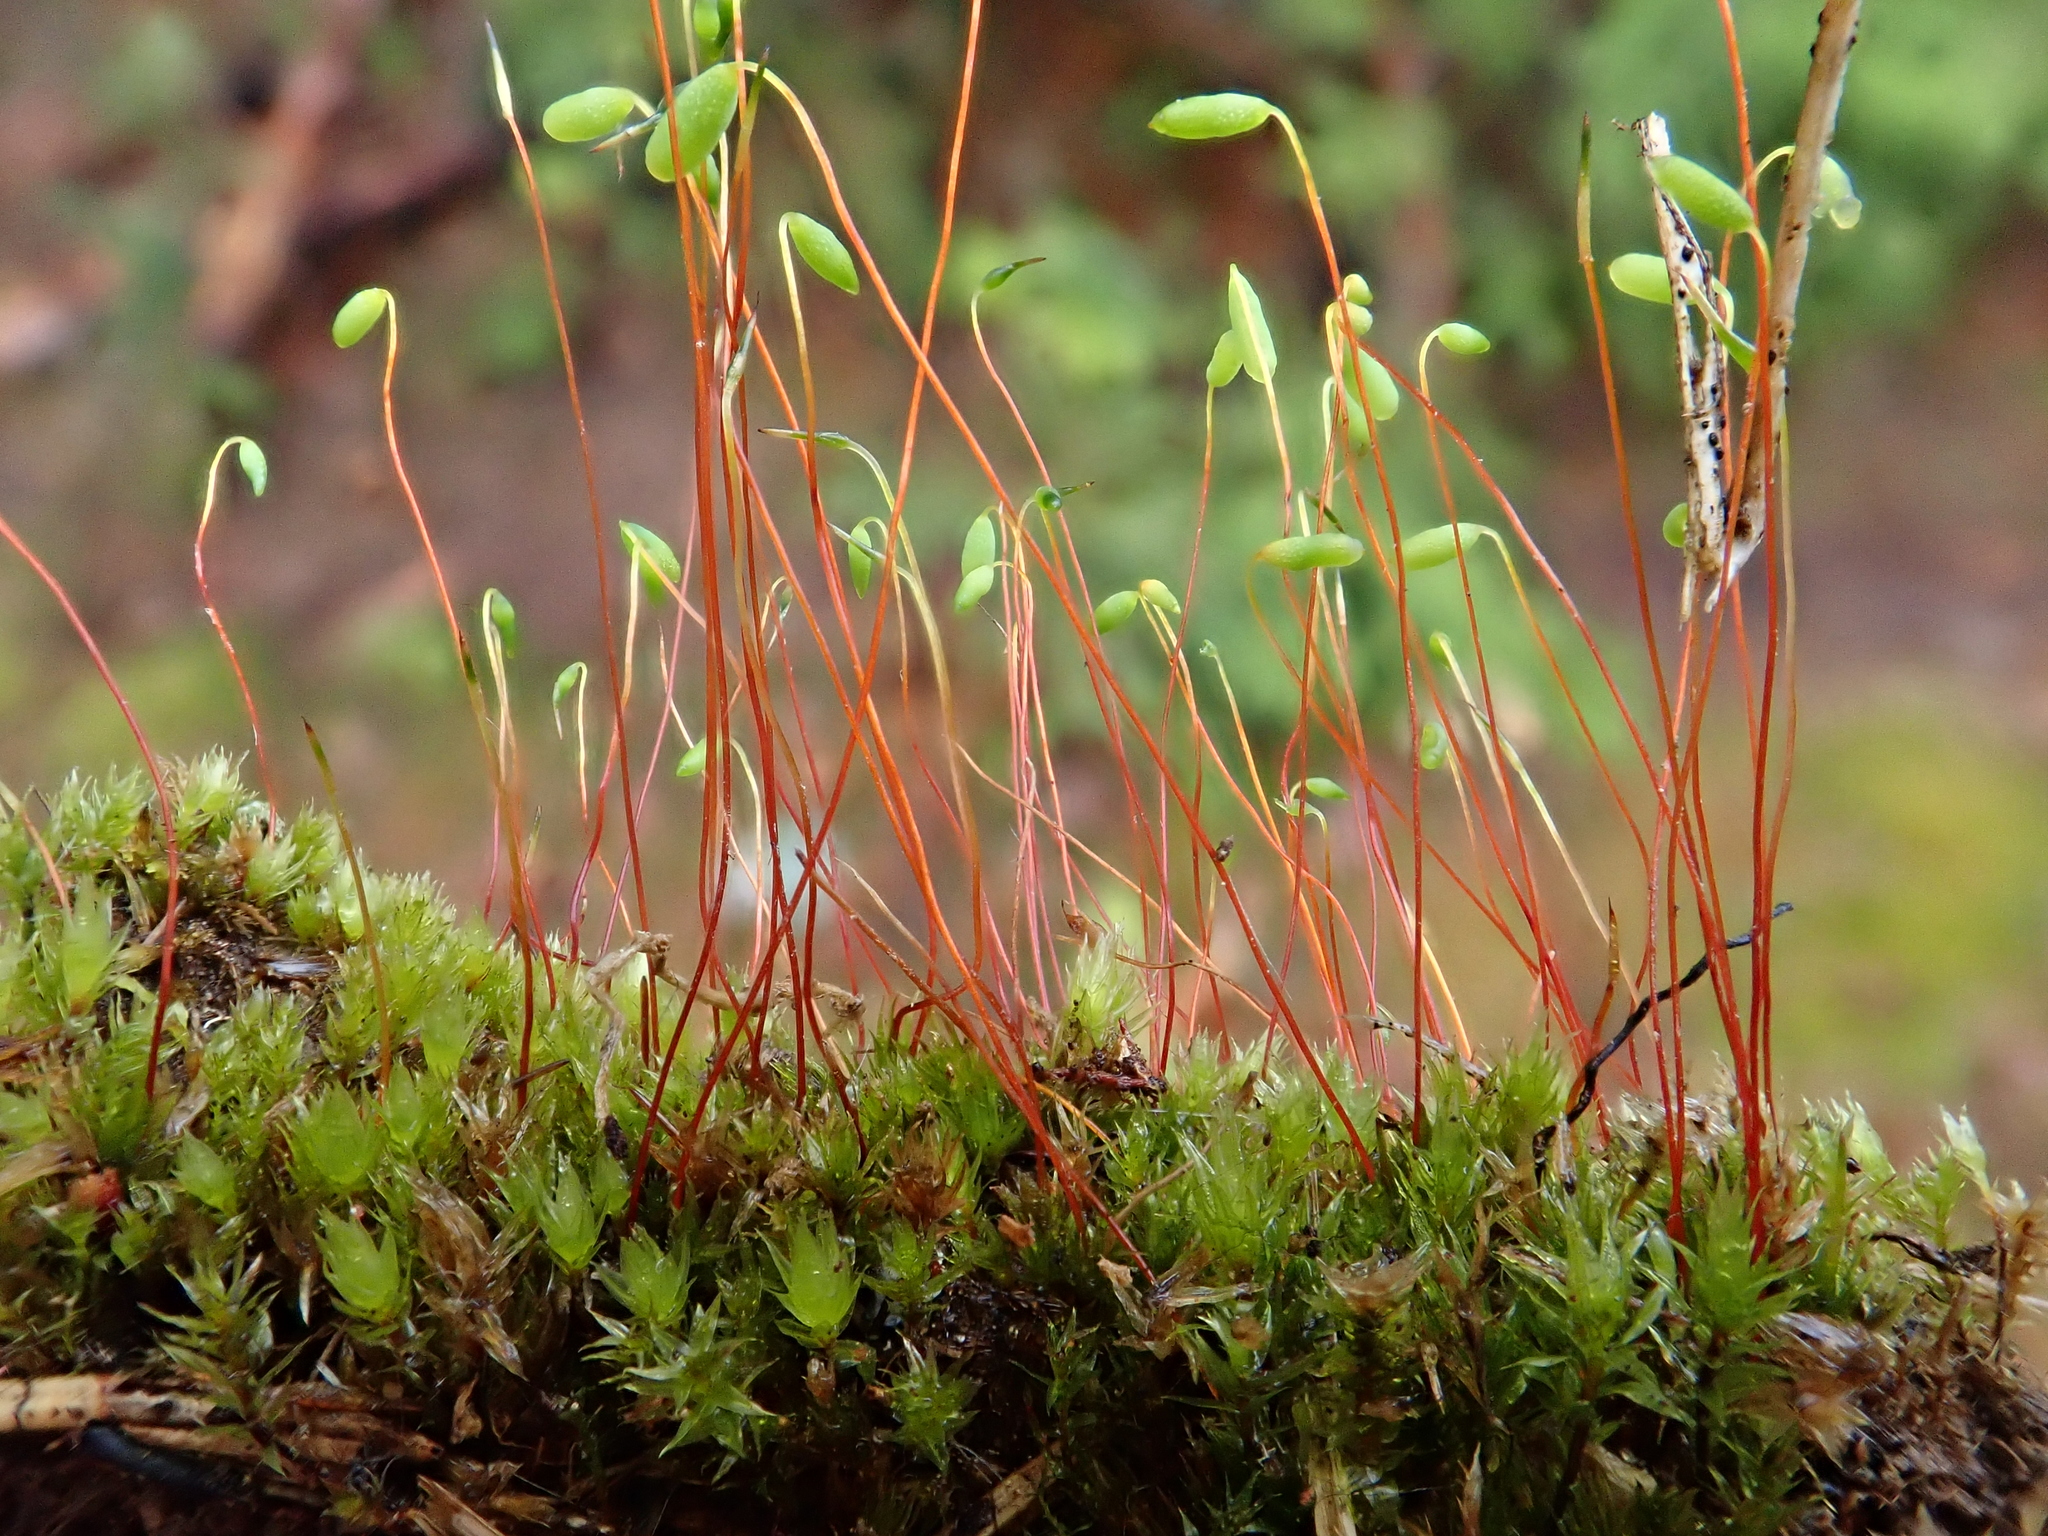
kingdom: Plantae
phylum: Bryophyta
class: Bryopsida
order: Bryales
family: Mniaceae
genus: Pohlia
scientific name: Pohlia nutans
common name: Nodding thread-moss
